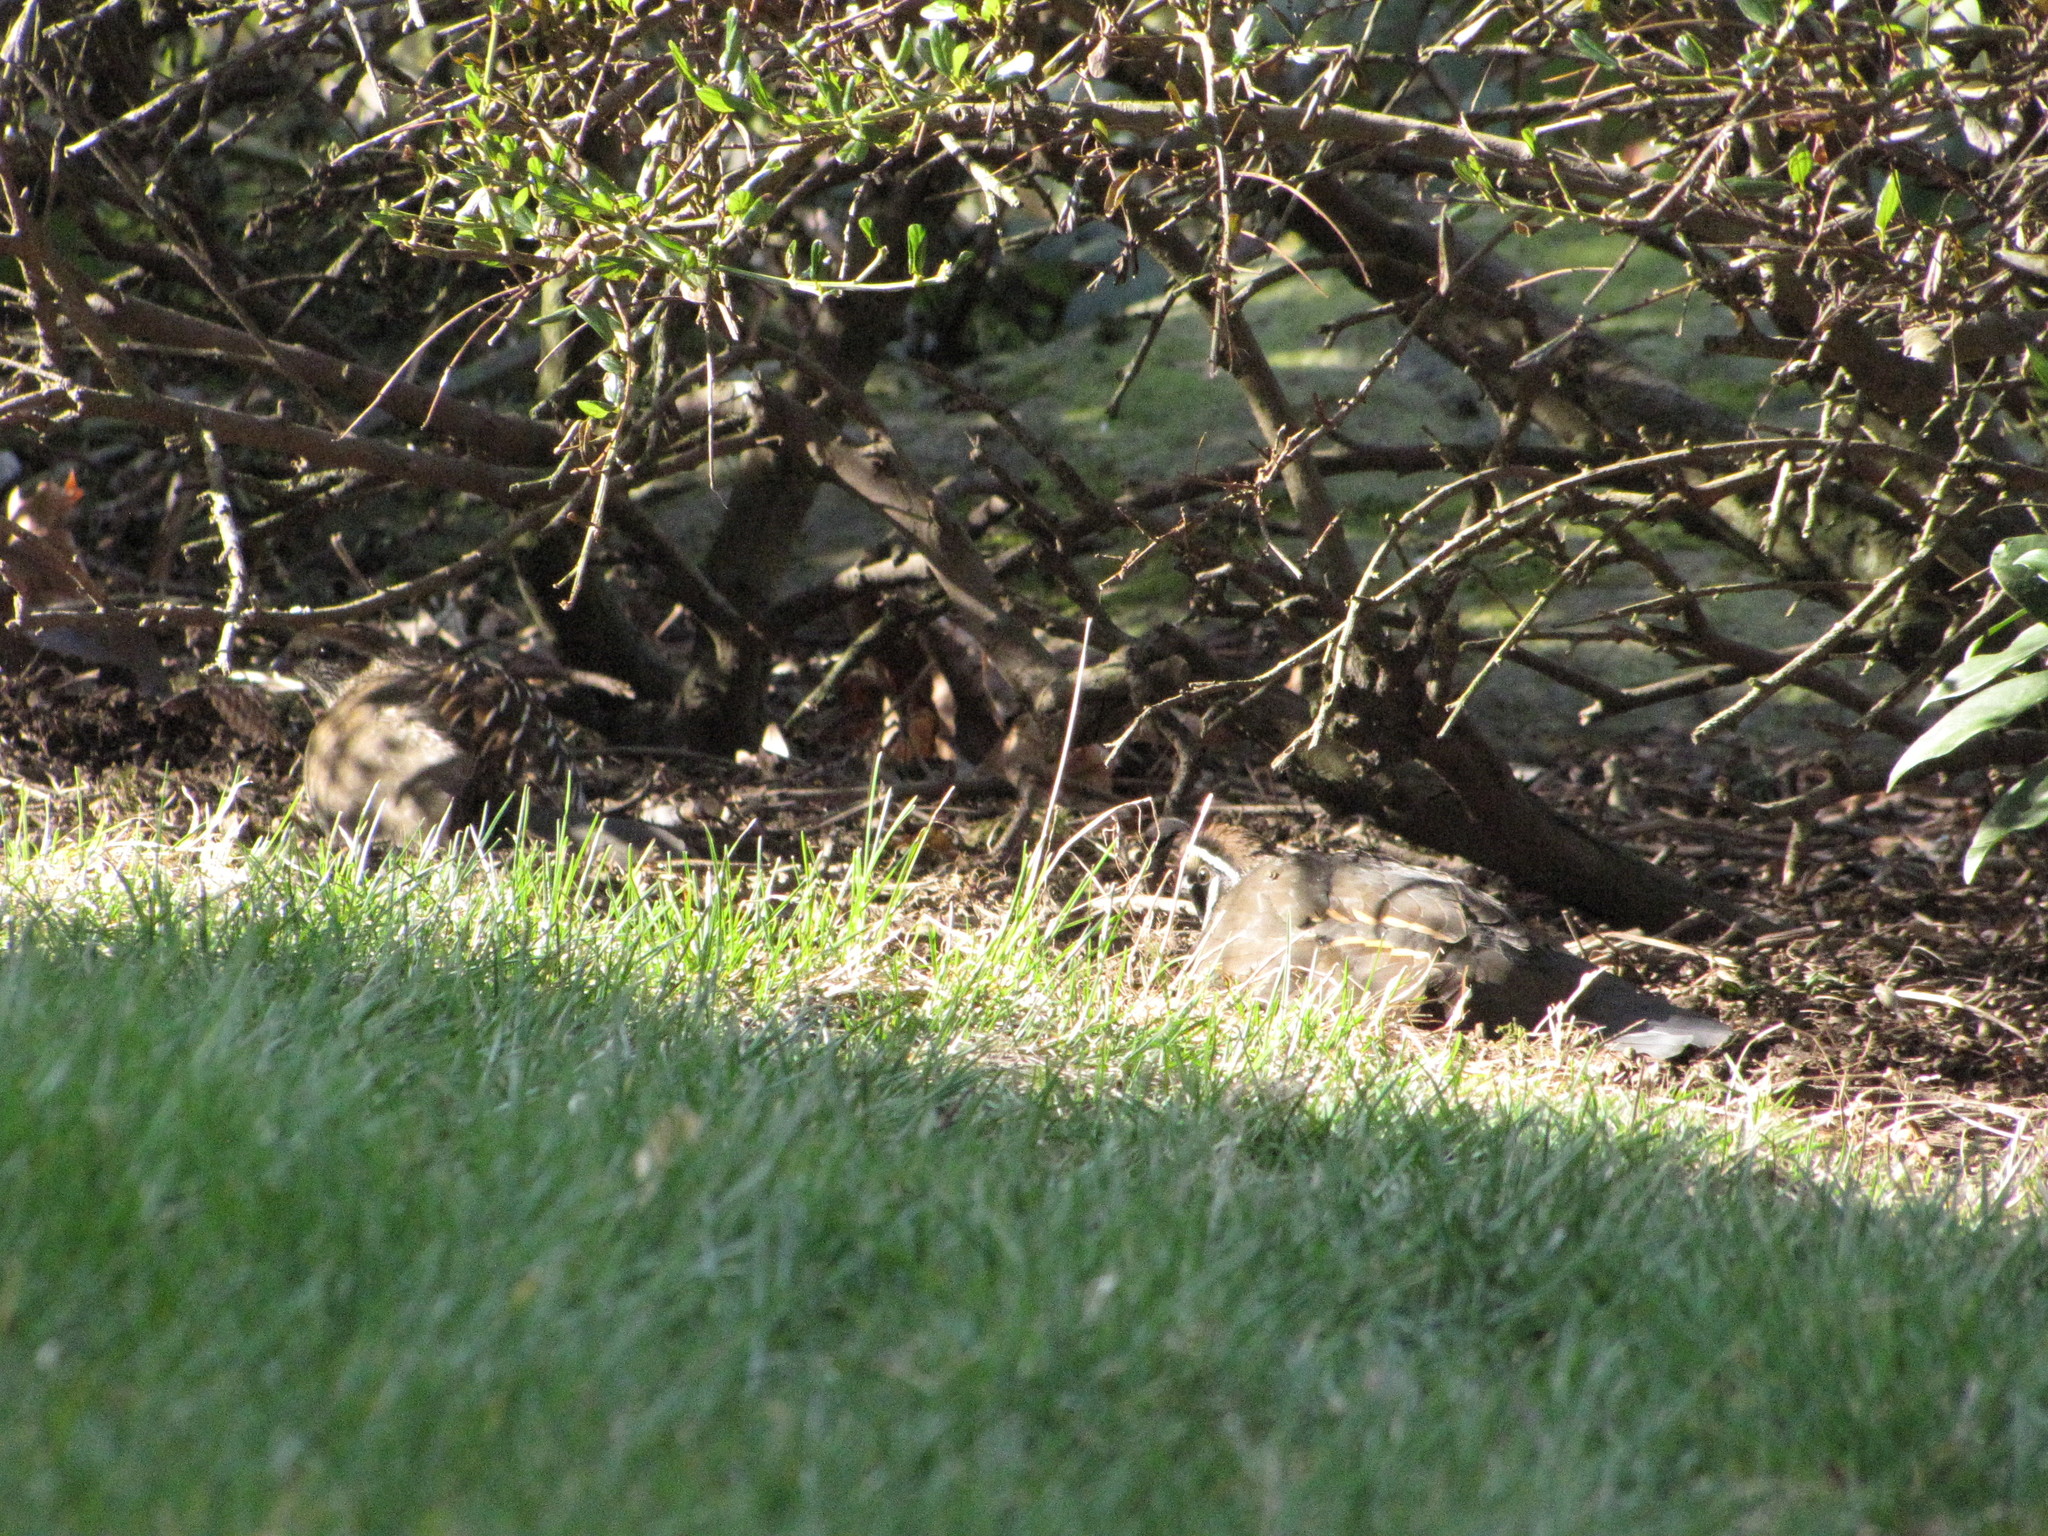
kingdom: Animalia
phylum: Chordata
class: Aves
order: Galliformes
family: Odontophoridae
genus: Callipepla
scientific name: Callipepla californica
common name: California quail
